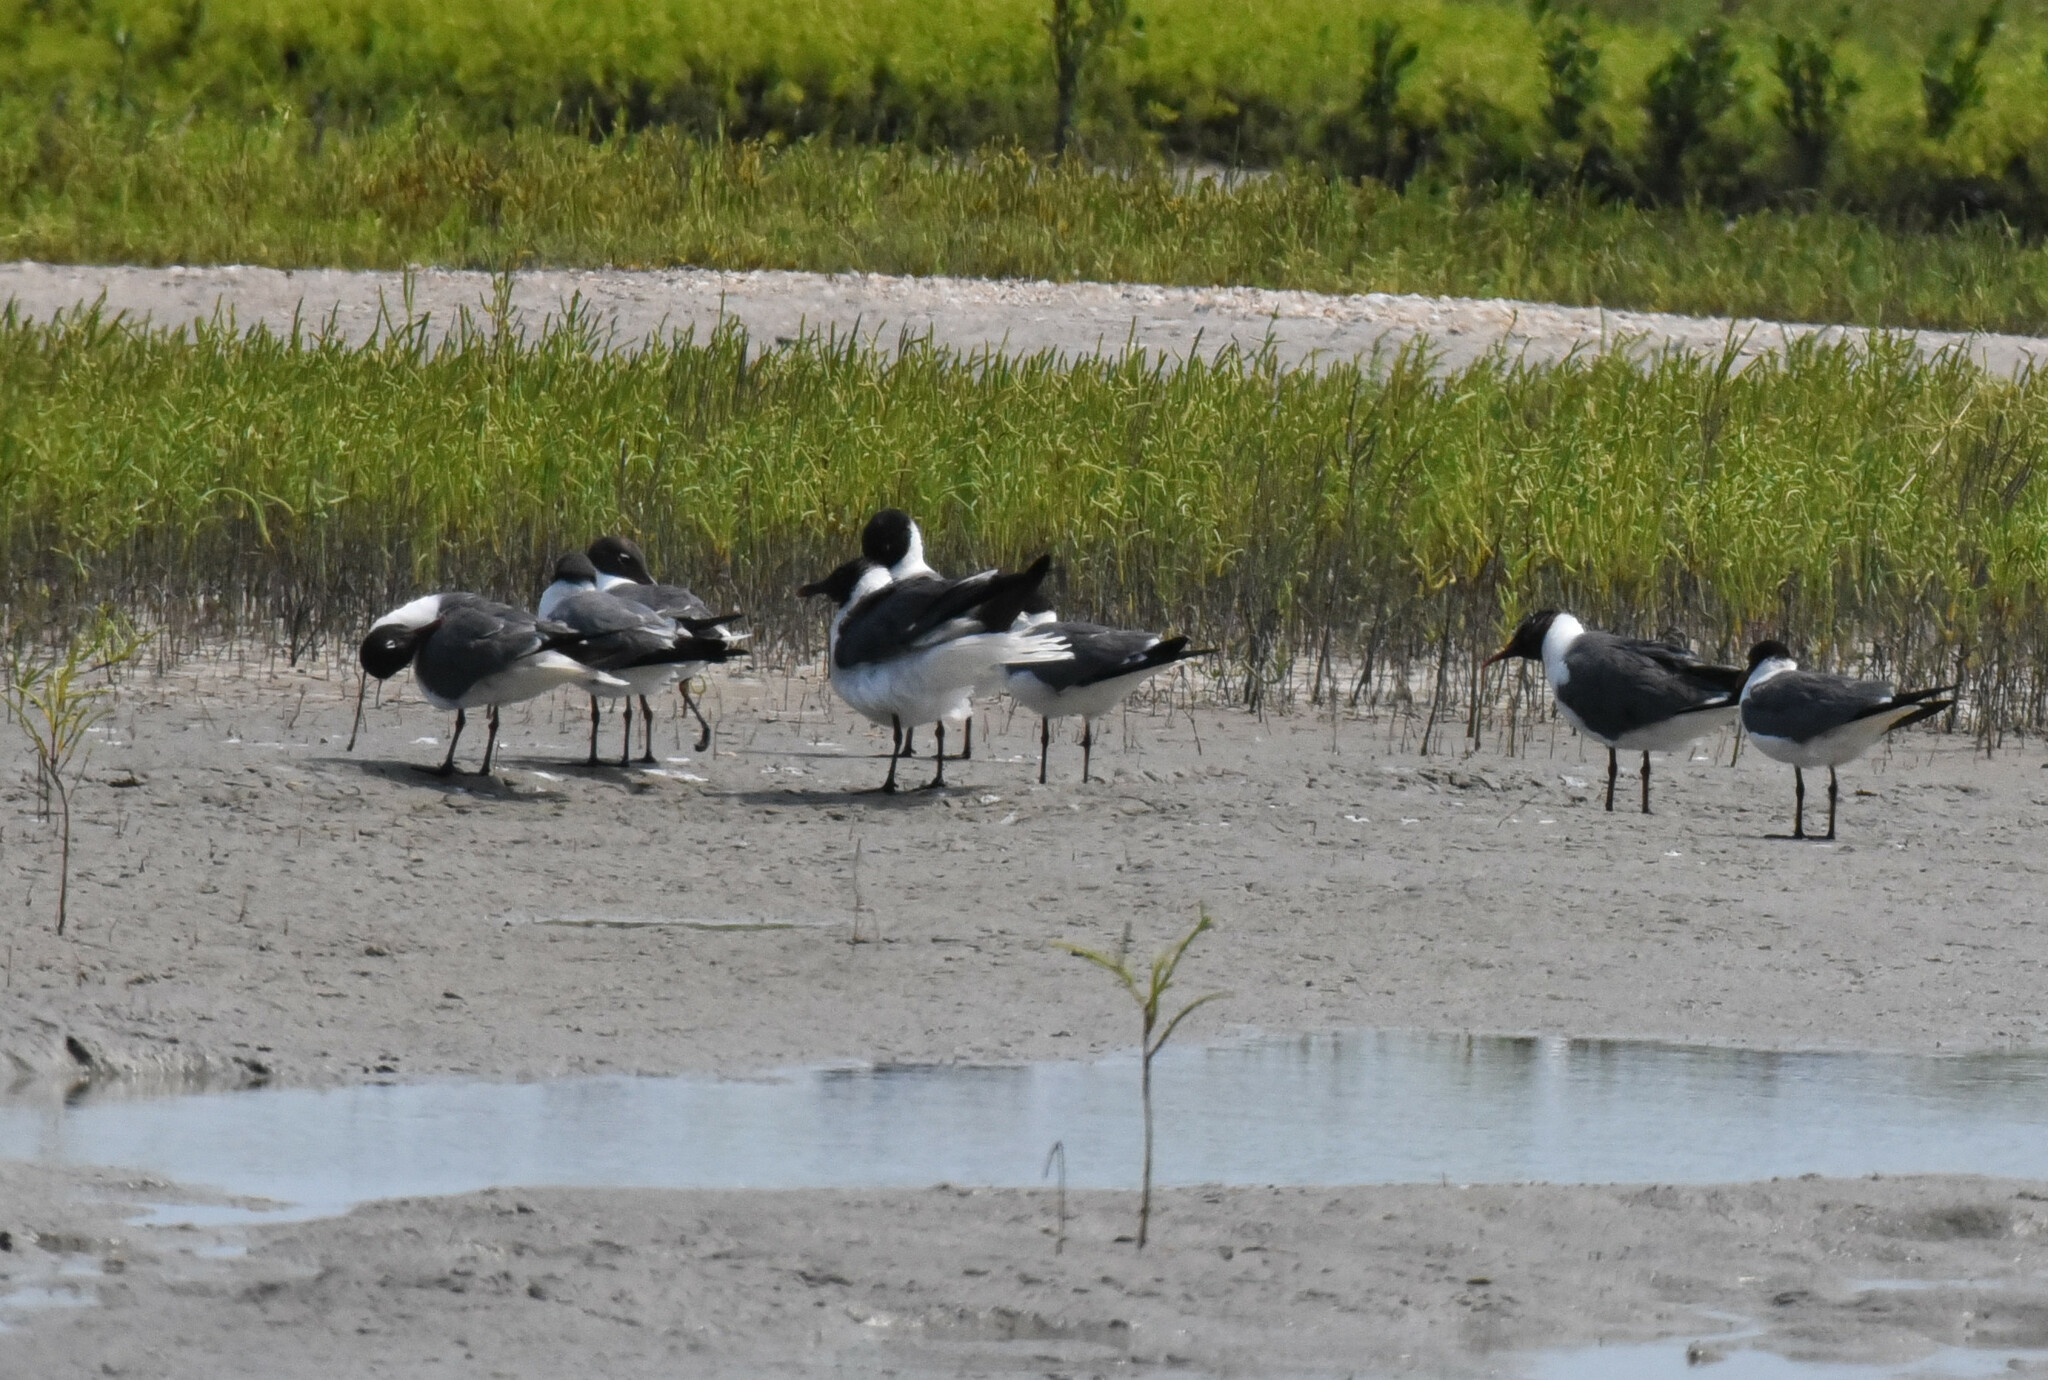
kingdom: Animalia
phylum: Chordata
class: Aves
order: Charadriiformes
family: Laridae
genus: Leucophaeus
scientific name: Leucophaeus atricilla
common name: Laughing gull
